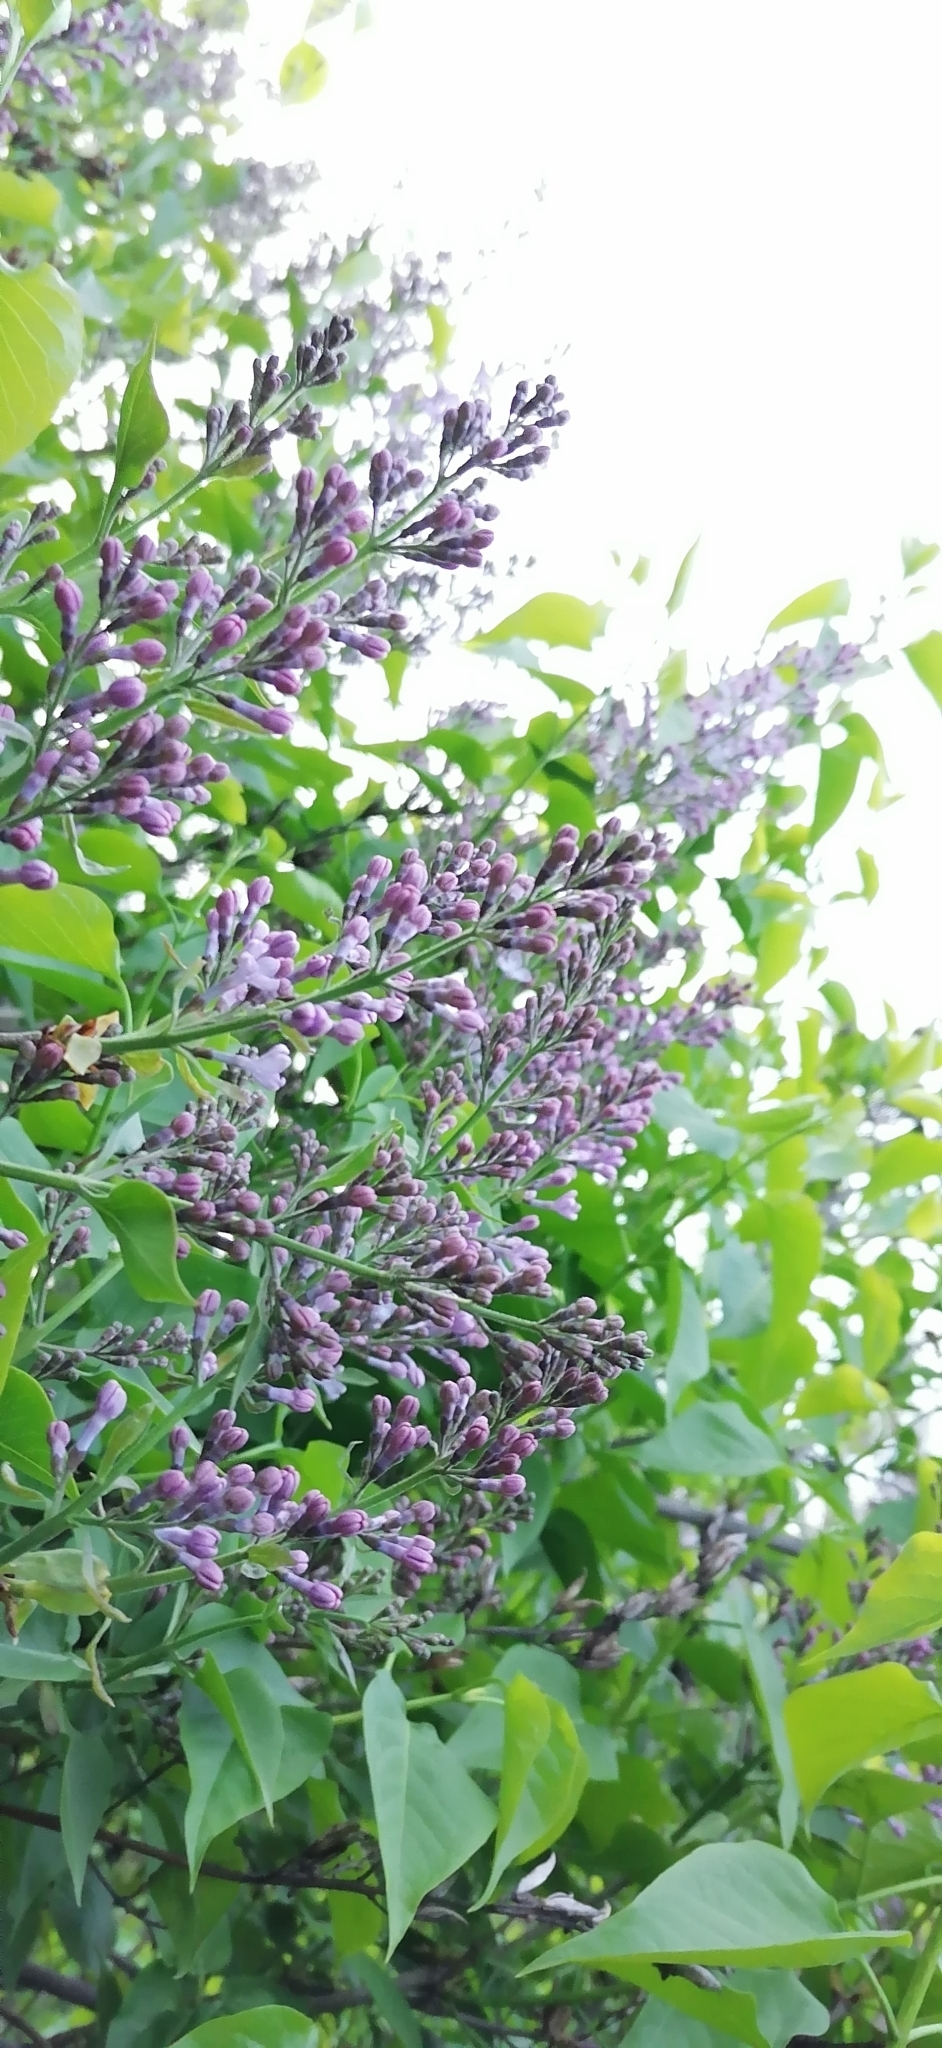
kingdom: Plantae
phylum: Tracheophyta
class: Magnoliopsida
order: Lamiales
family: Oleaceae
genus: Syringa
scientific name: Syringa vulgaris
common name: Common lilac
